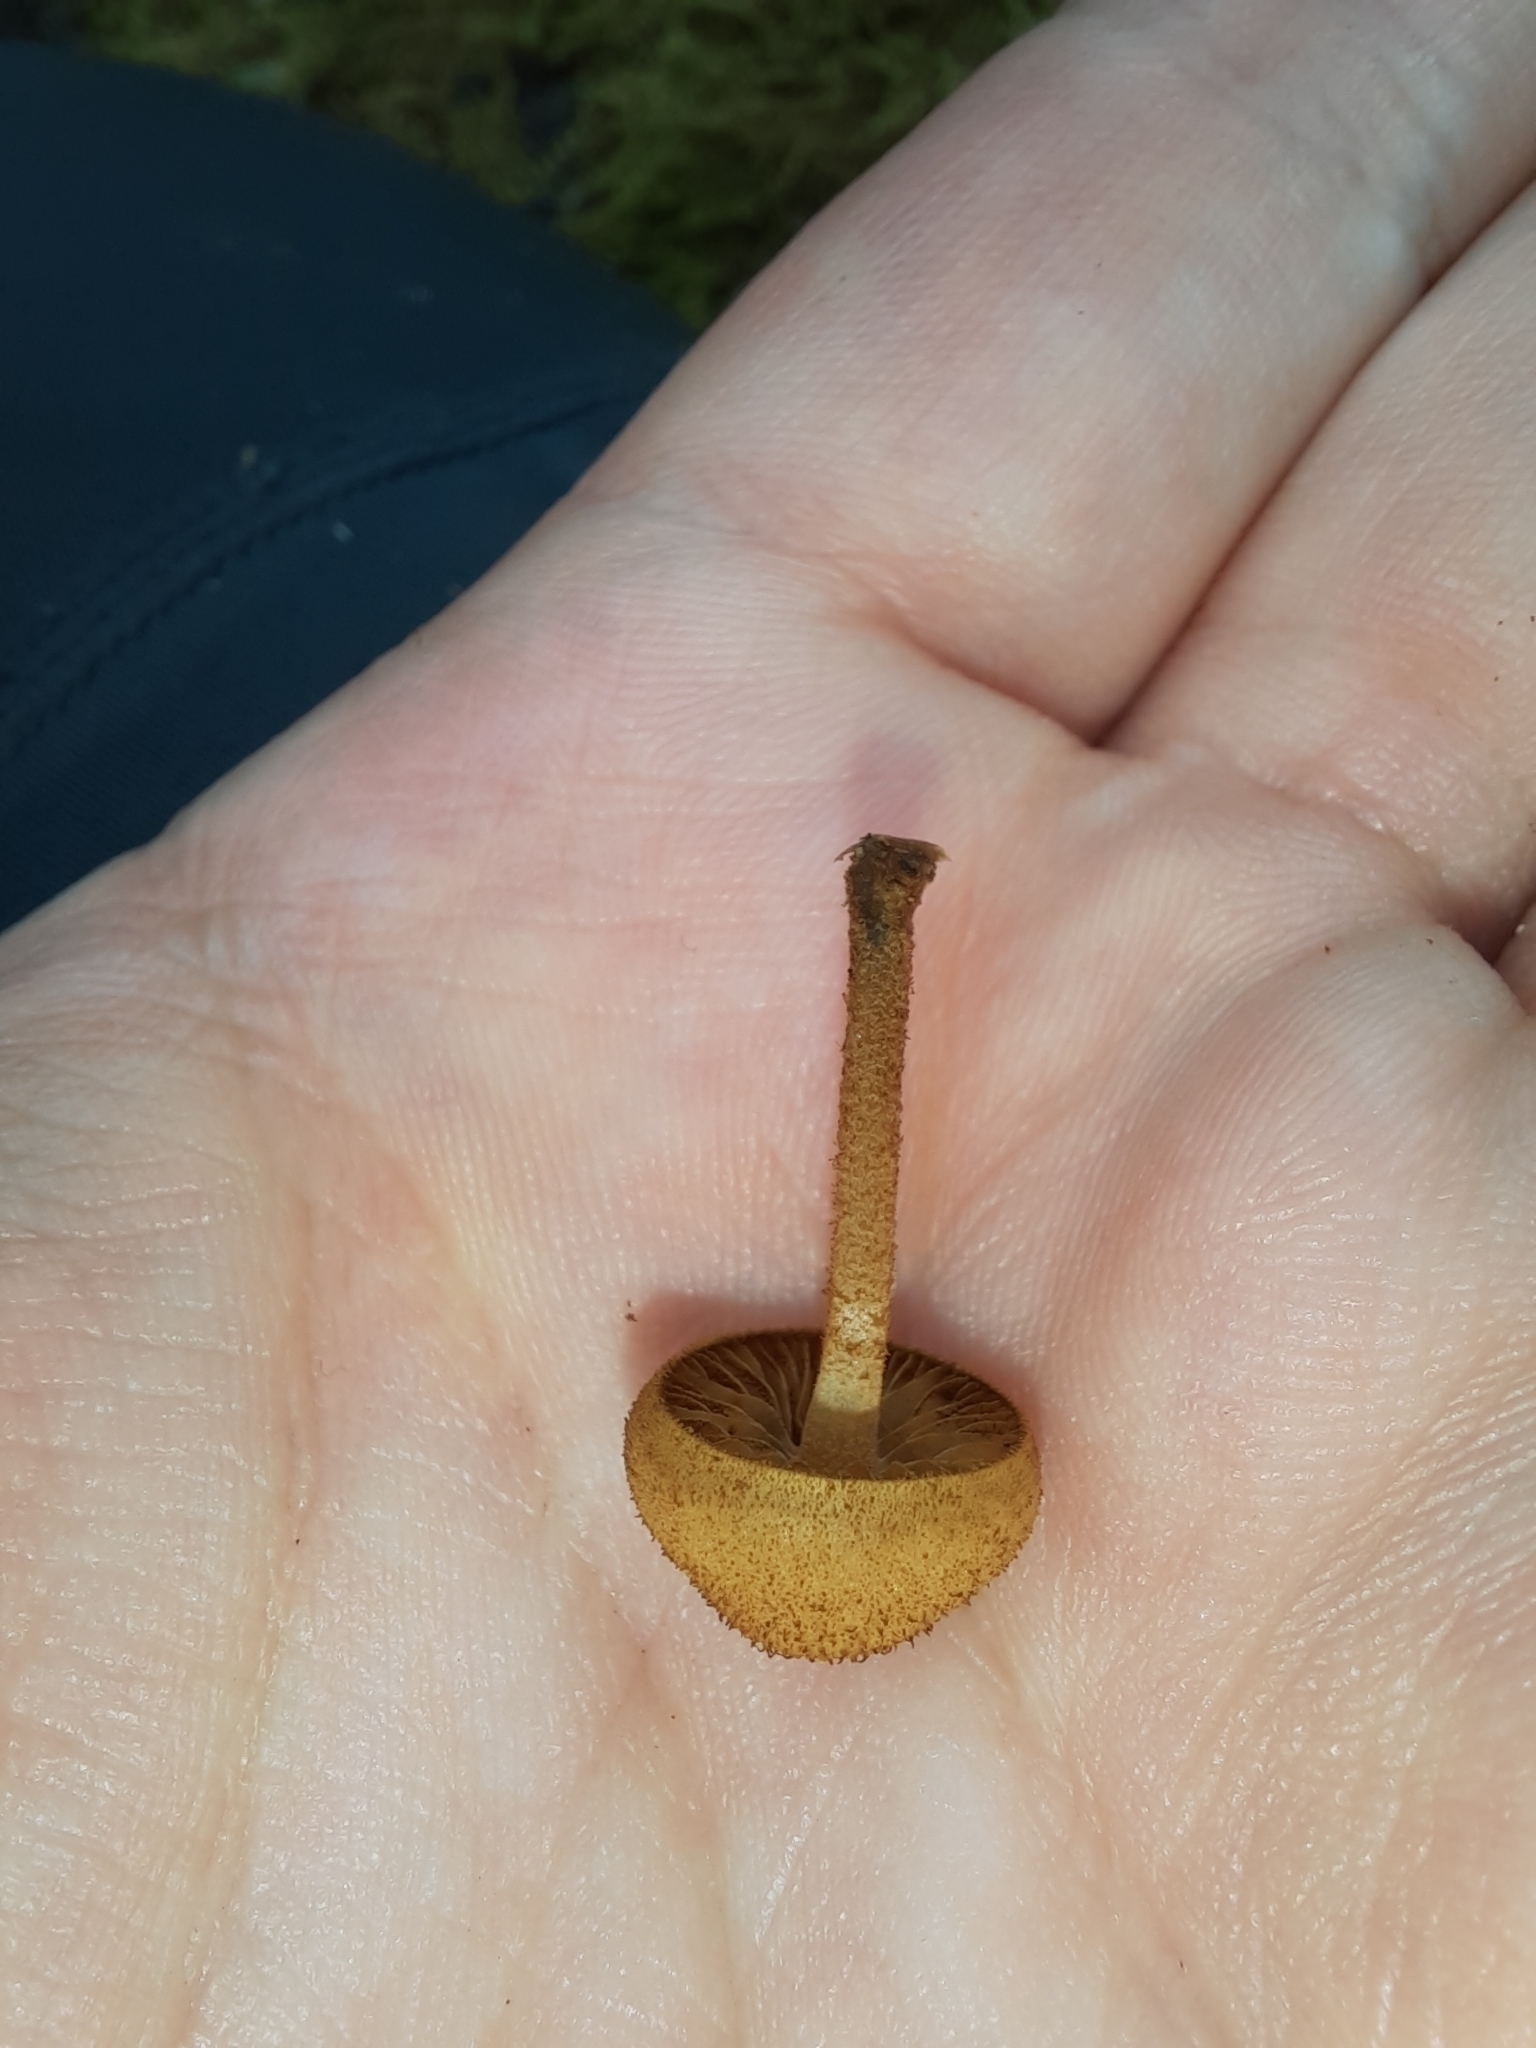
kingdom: Fungi
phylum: Basidiomycota
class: Agaricomycetes
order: Agaricales
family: Tubariaceae
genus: Flammulaster
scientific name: Flammulaster ciliatus
